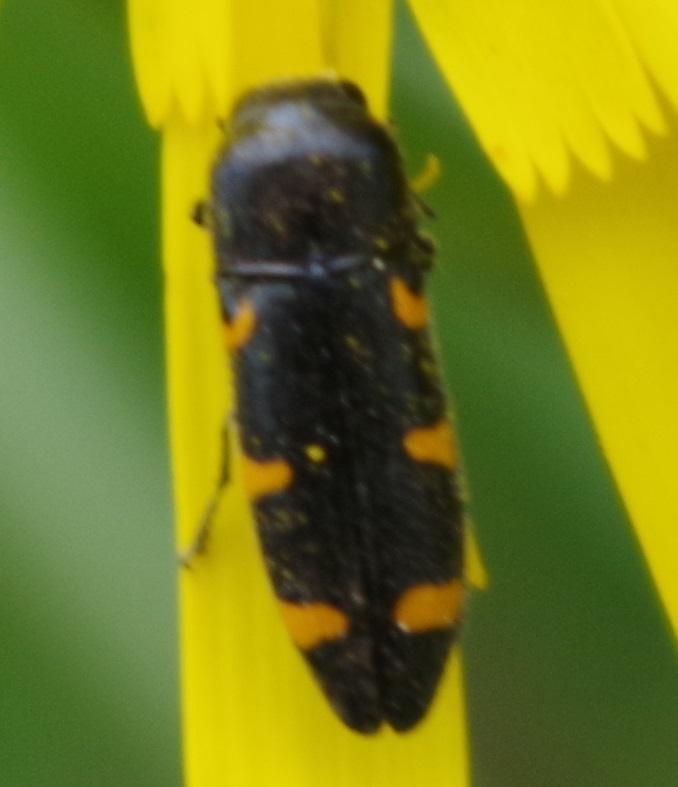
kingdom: Animalia
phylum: Arthropoda
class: Insecta
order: Coleoptera
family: Buprestidae
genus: Ptosima
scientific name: Ptosima undecimmaculata
